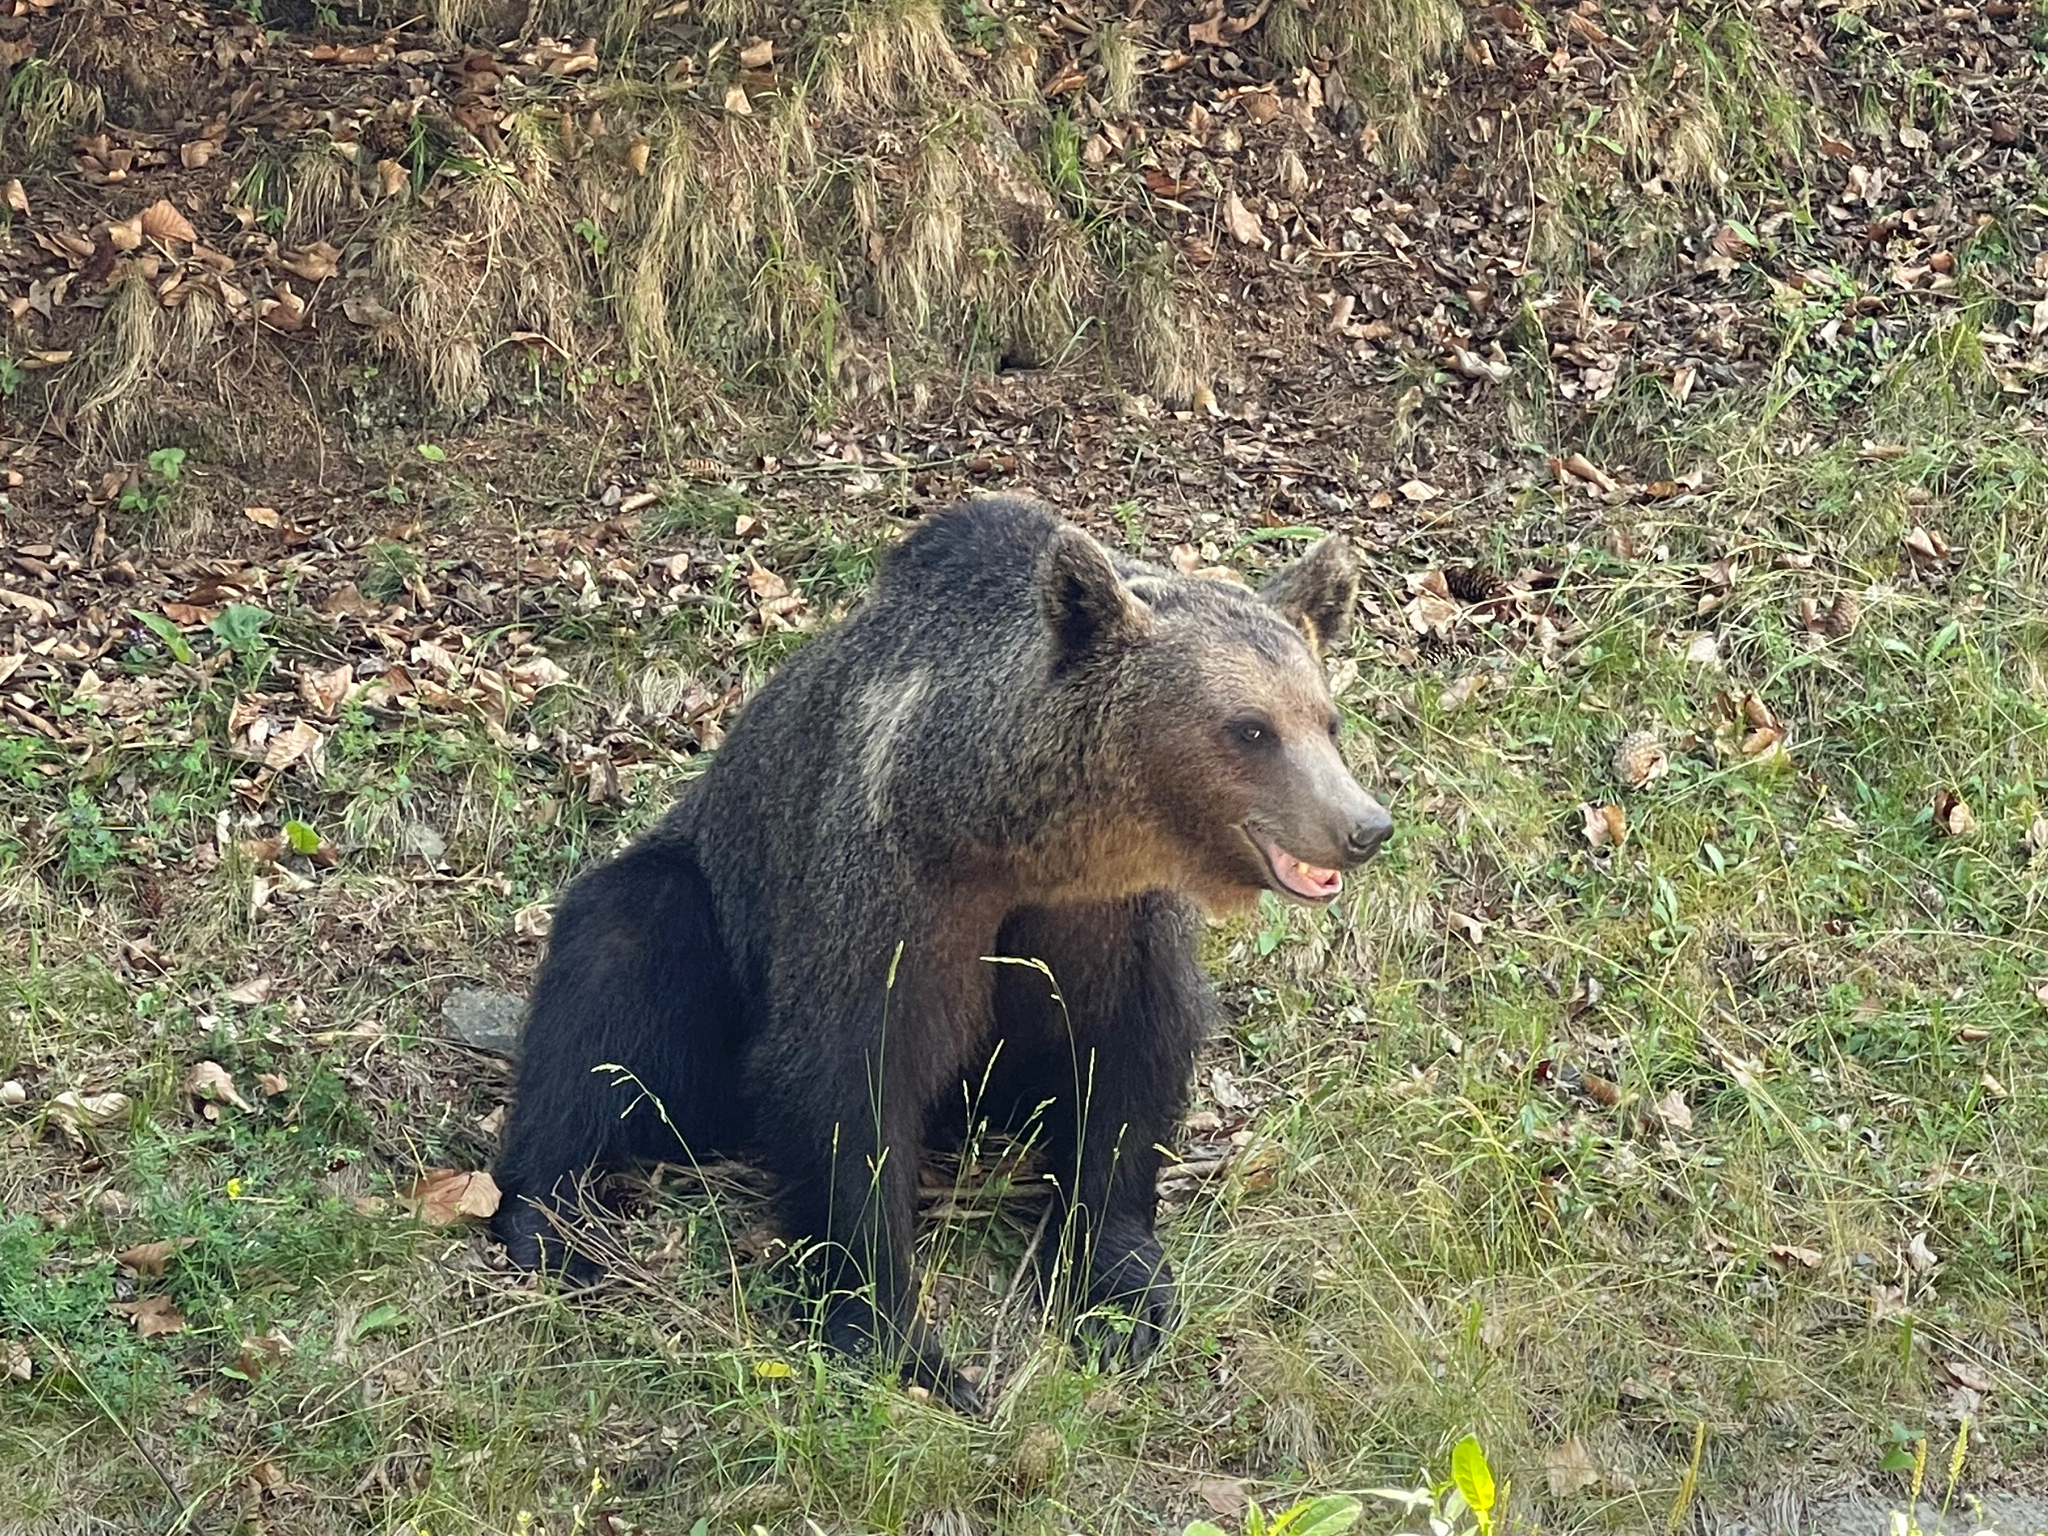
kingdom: Animalia
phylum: Chordata
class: Mammalia
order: Carnivora
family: Ursidae
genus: Ursus
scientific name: Ursus arctos
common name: Brown bear
